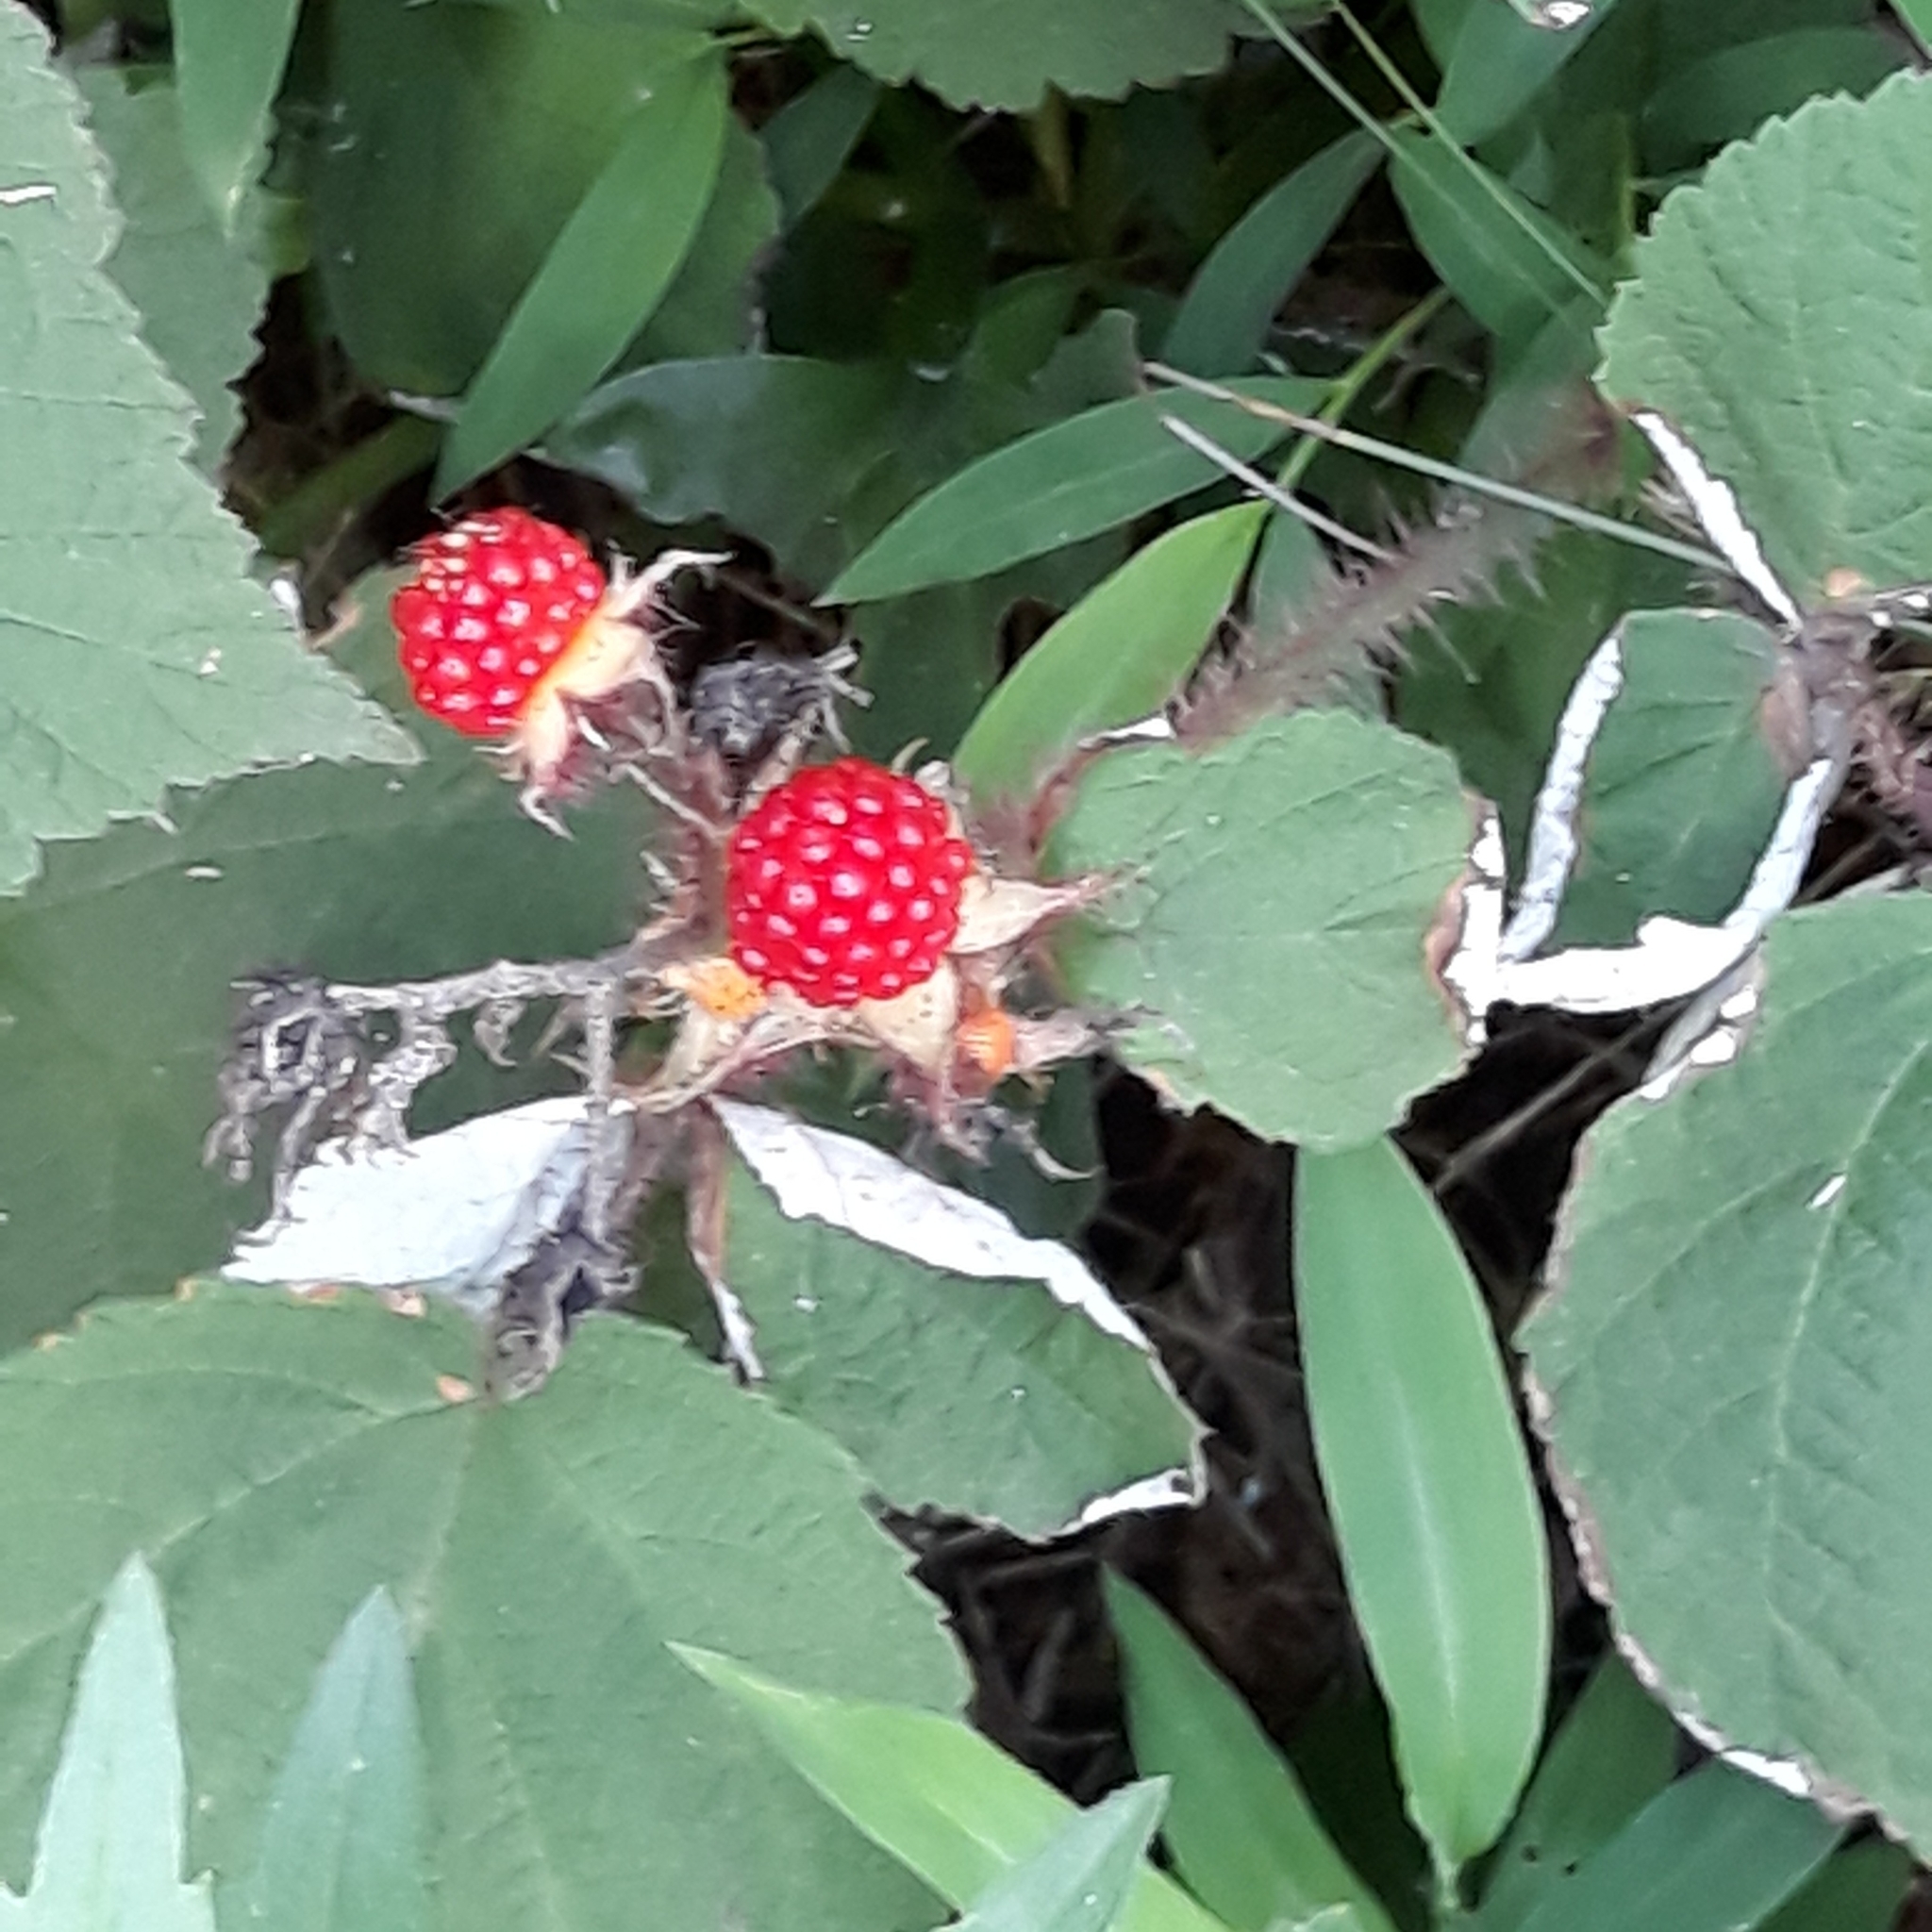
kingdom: Plantae
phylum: Tracheophyta
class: Magnoliopsida
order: Rosales
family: Rosaceae
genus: Rubus
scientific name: Rubus phoenicolasius
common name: Japanese wineberry
